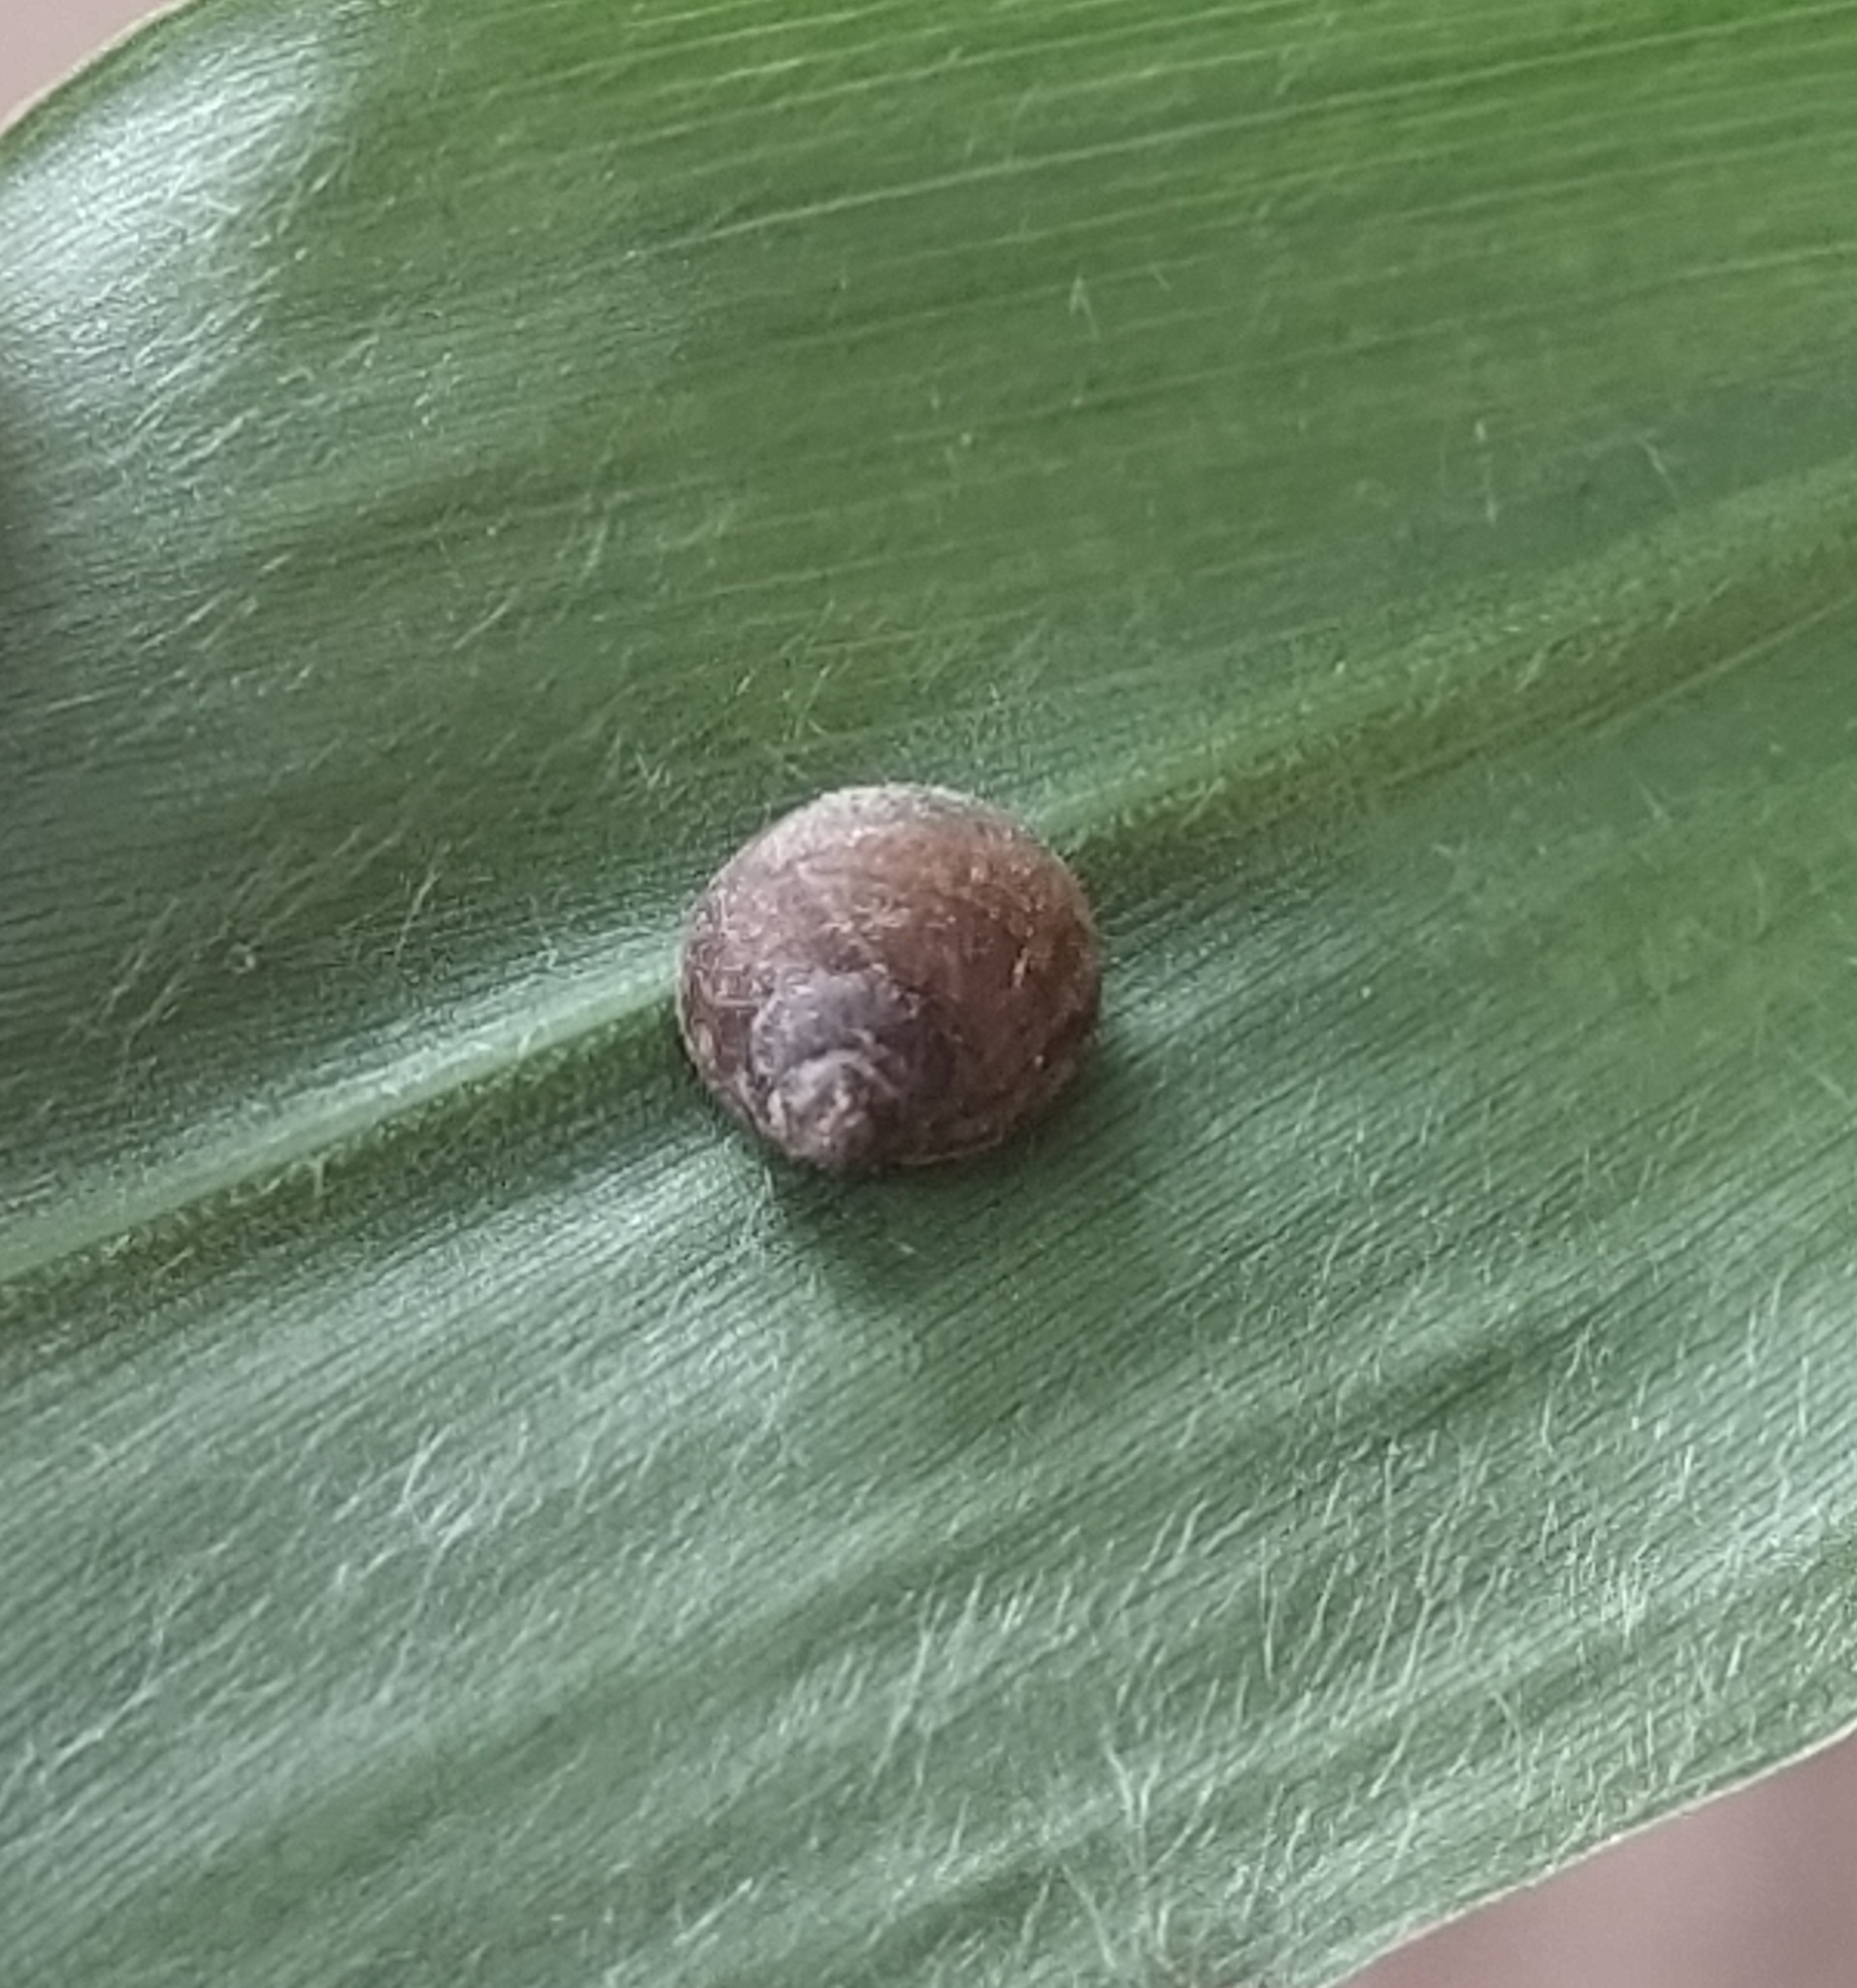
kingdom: Animalia
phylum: Mollusca
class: Gastropoda
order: Stylommatophora
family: Helicidae
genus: Cornu
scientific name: Cornu aspersum
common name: Brown garden snail
